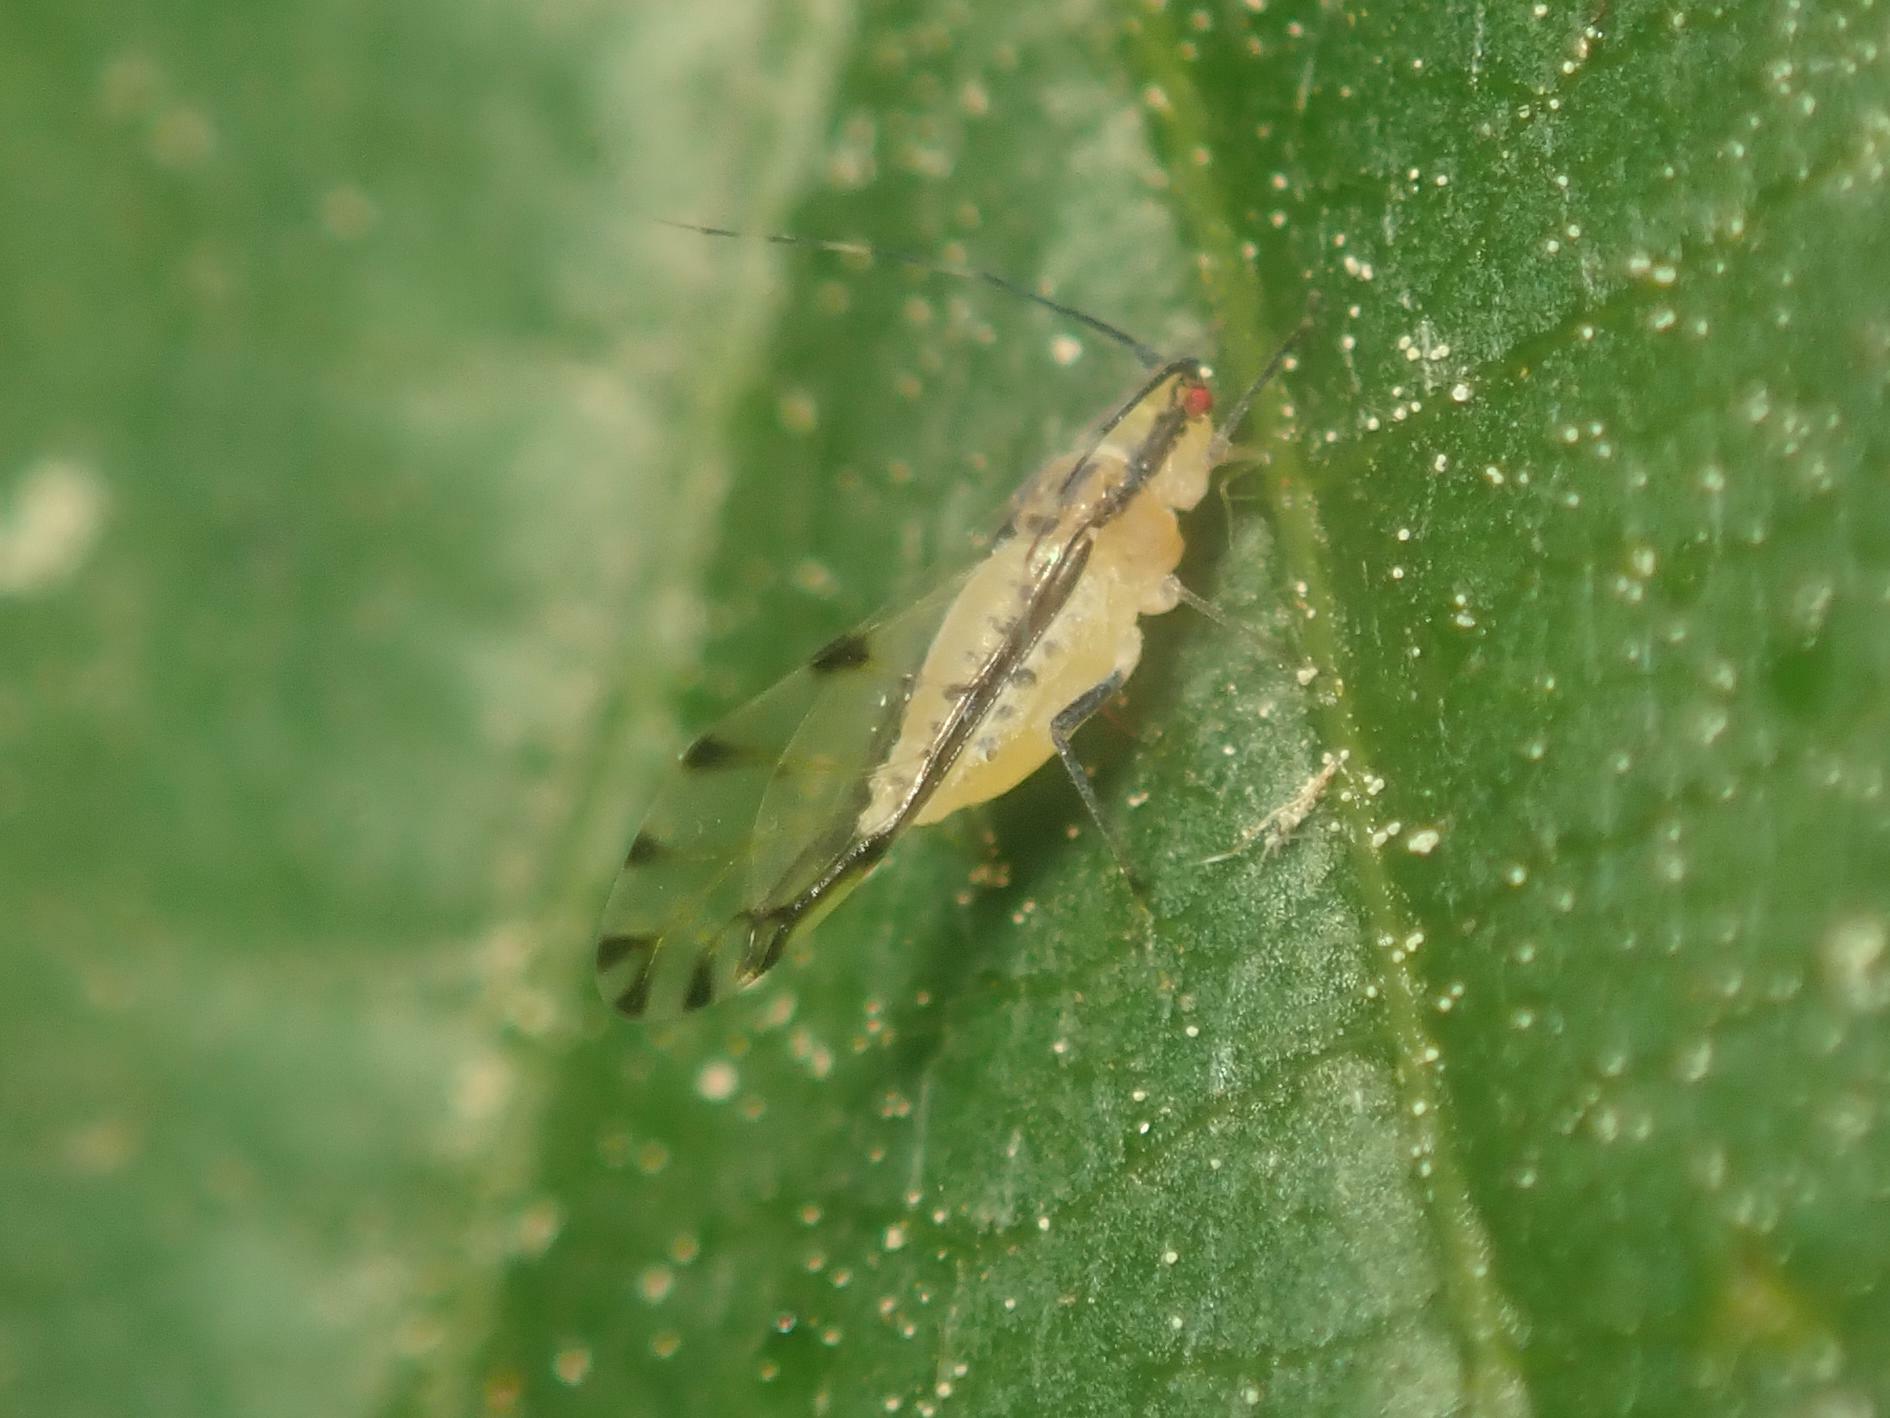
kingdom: Animalia
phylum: Arthropoda
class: Insecta
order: Hemiptera
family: Aphididae
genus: Eucallipterus
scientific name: Eucallipterus tiliae
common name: Aphid
